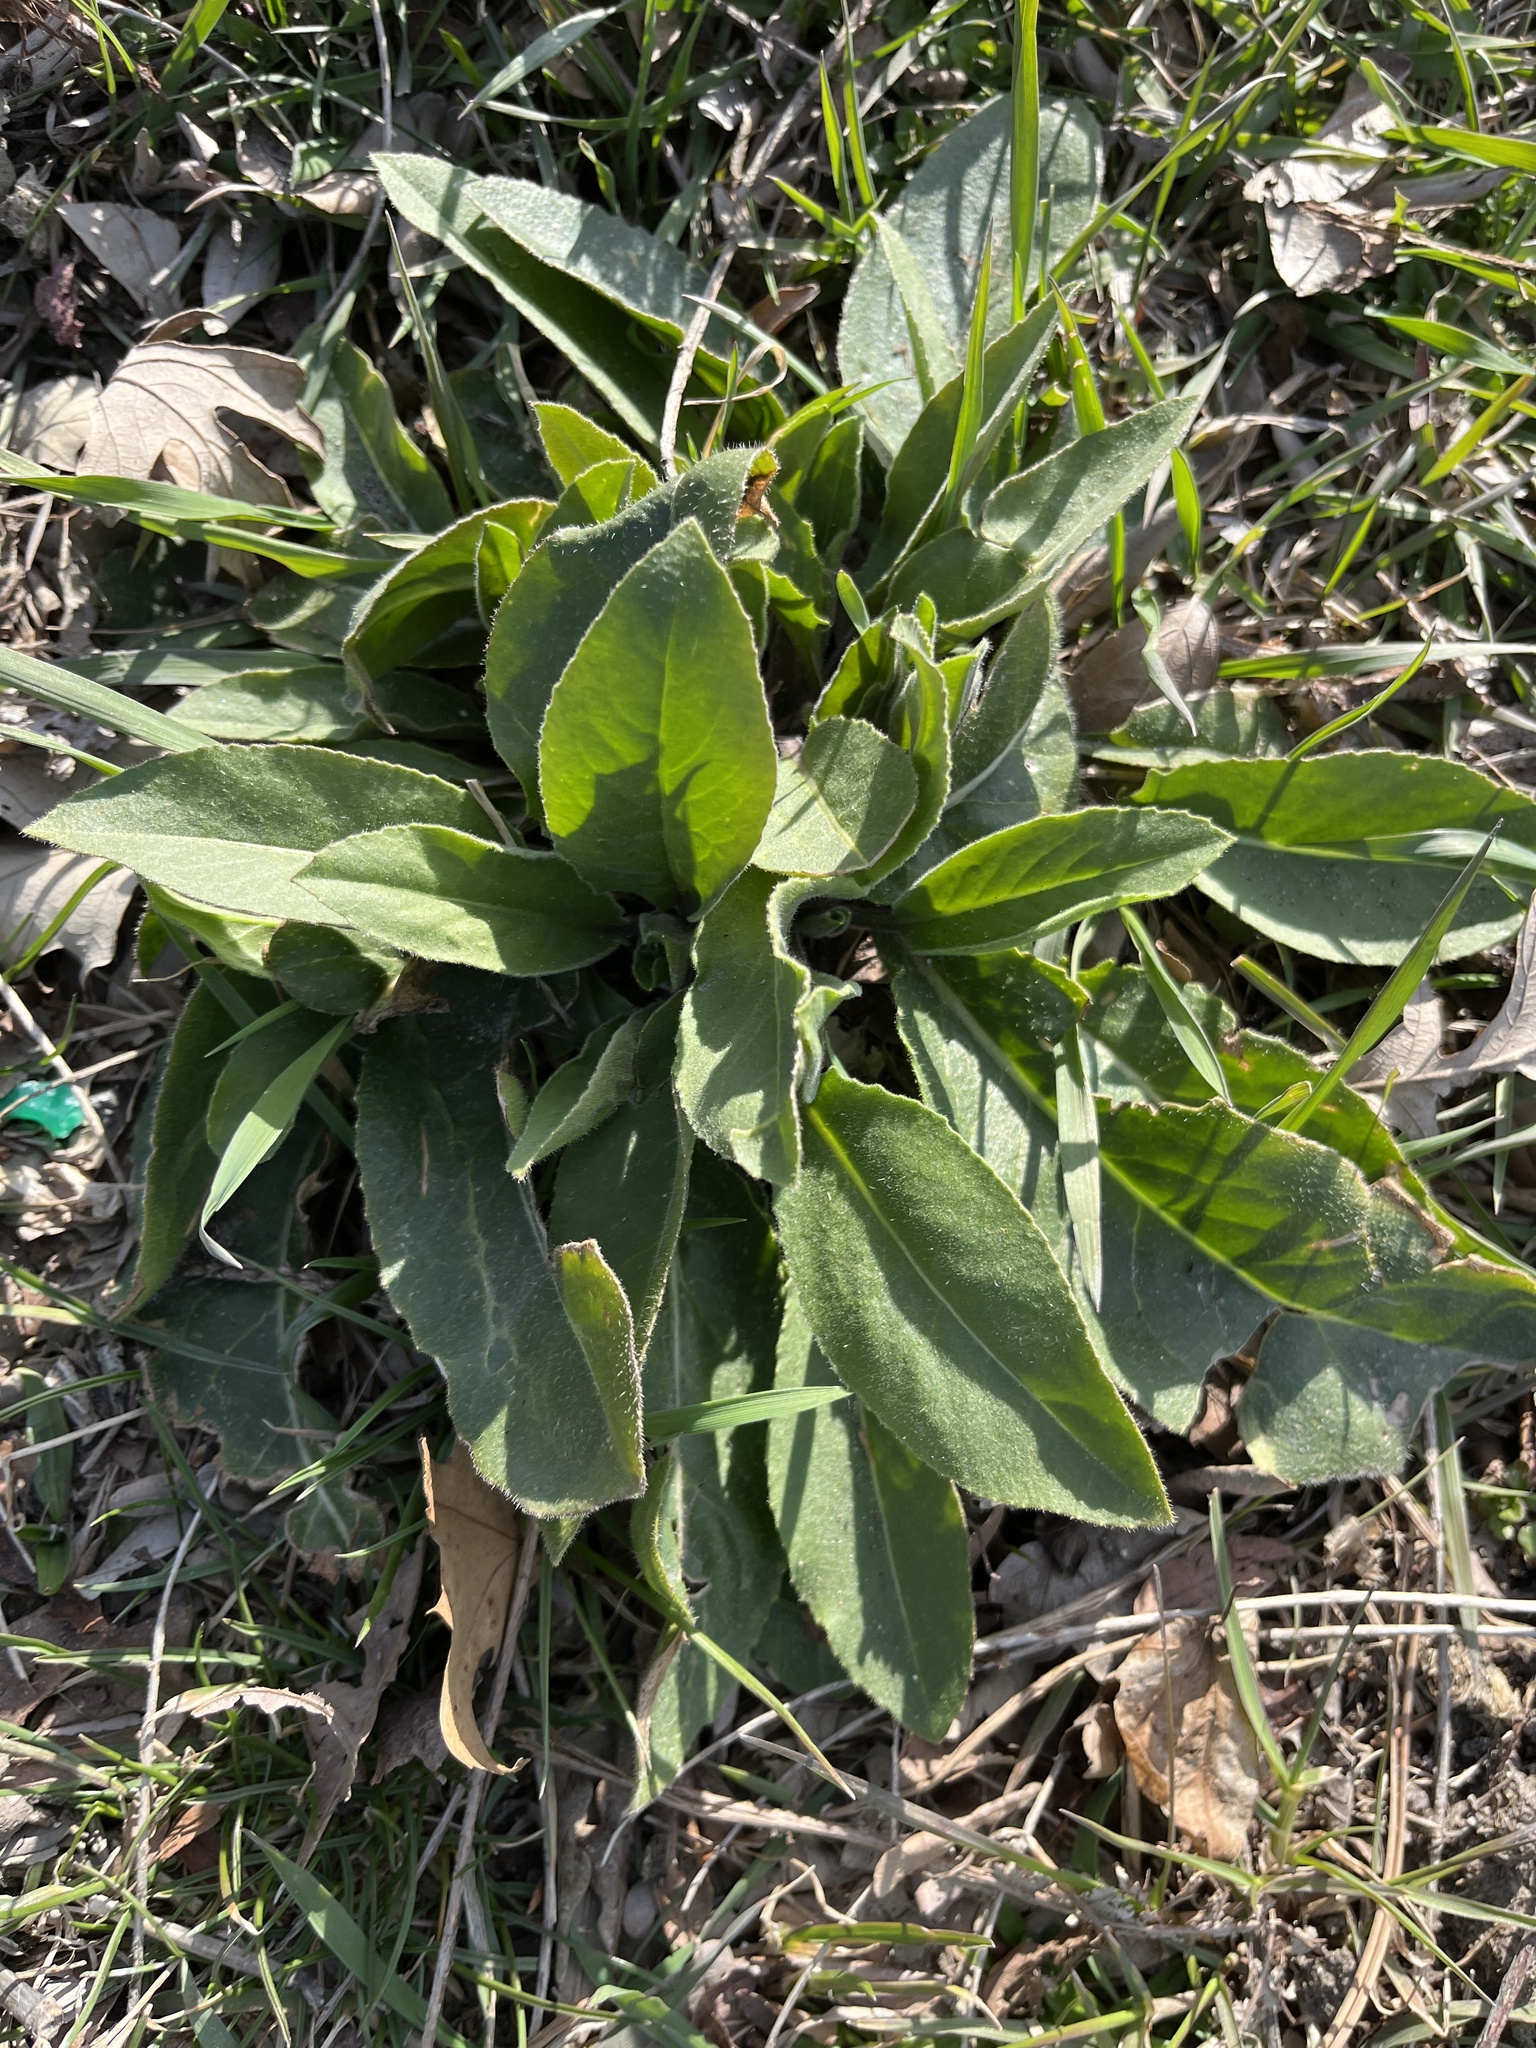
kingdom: Plantae
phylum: Tracheophyta
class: Magnoliopsida
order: Brassicales
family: Brassicaceae
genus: Hesperis
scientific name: Hesperis matronalis
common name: Dame's-violet
